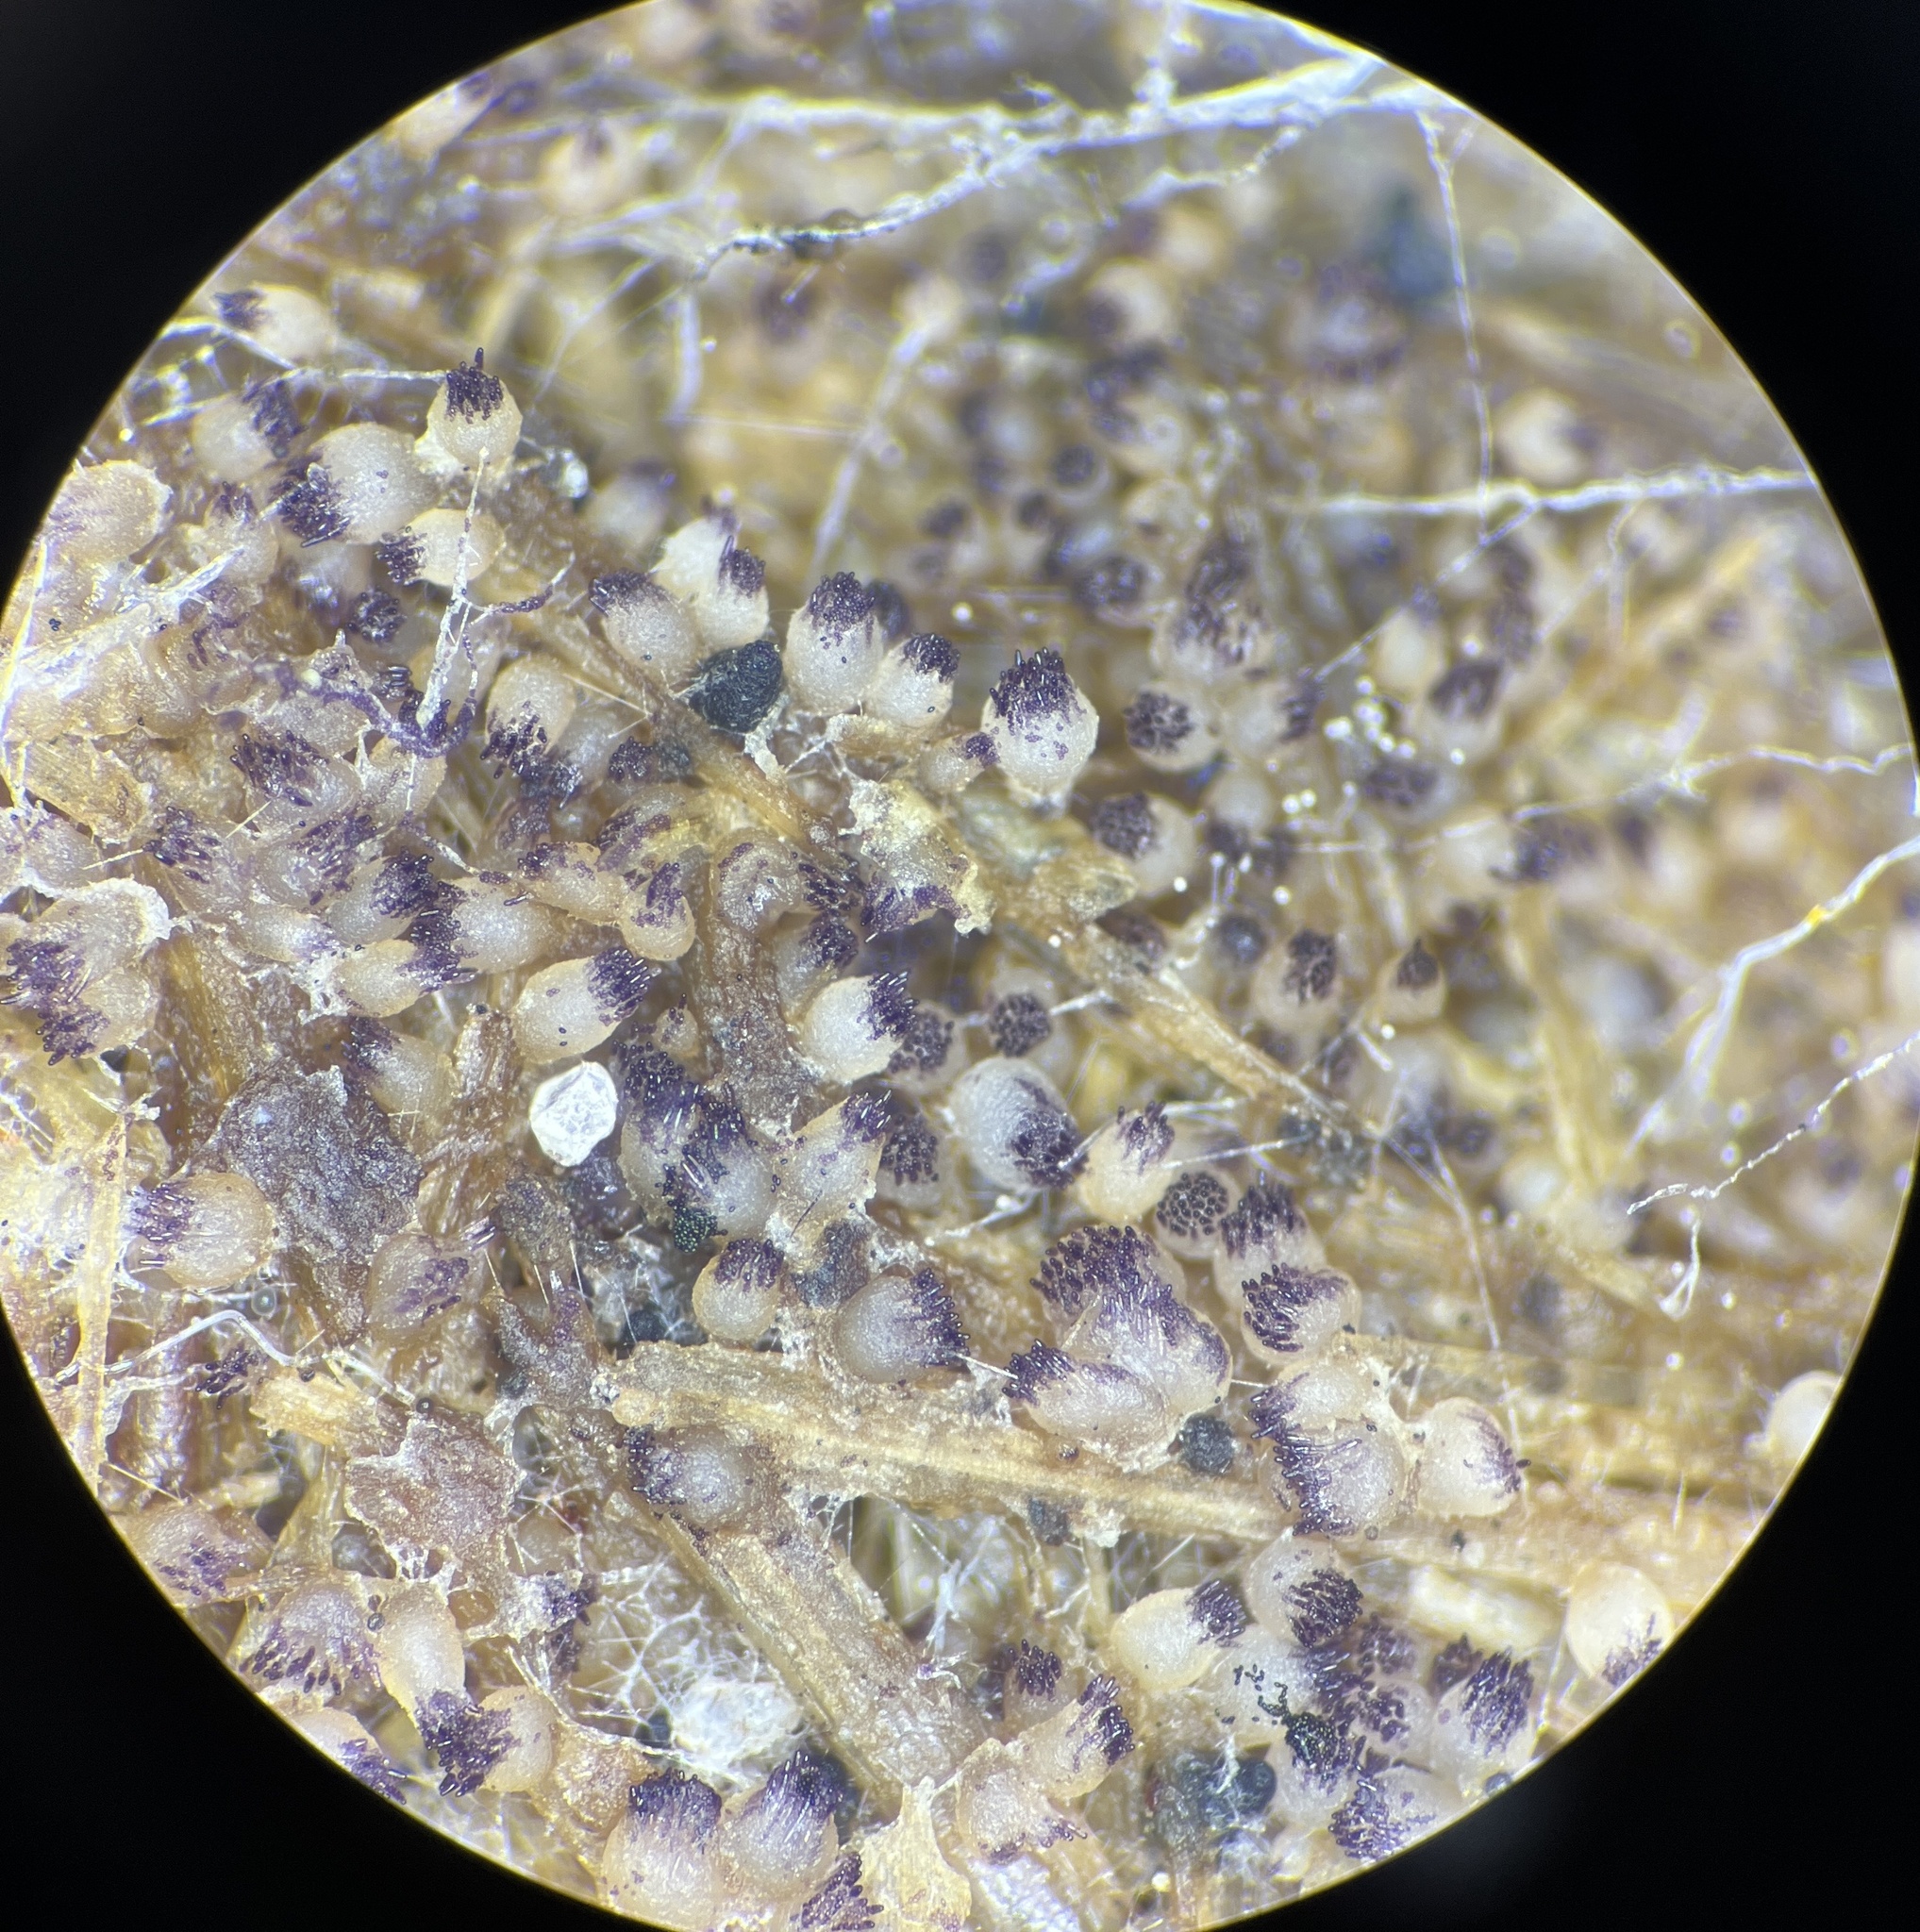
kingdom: Fungi
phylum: Ascomycota
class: Pezizomycetes
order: Pezizales
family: Ascobolaceae
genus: Ascobolus
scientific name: Ascobolus albidus
